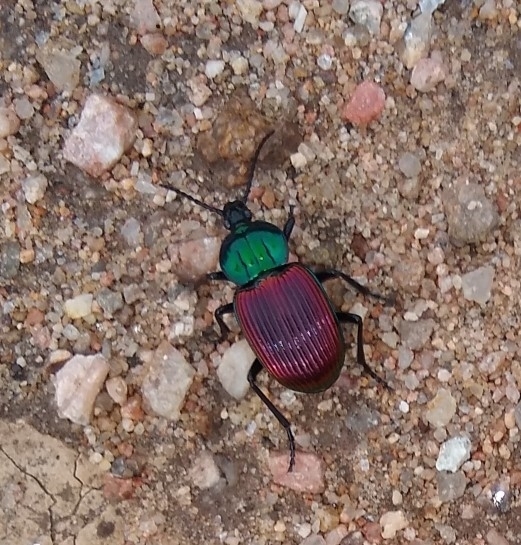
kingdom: Animalia
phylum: Arthropoda
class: Insecta
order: Coleoptera
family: Carabidae
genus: Brachygnathus
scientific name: Brachygnathus festivus
